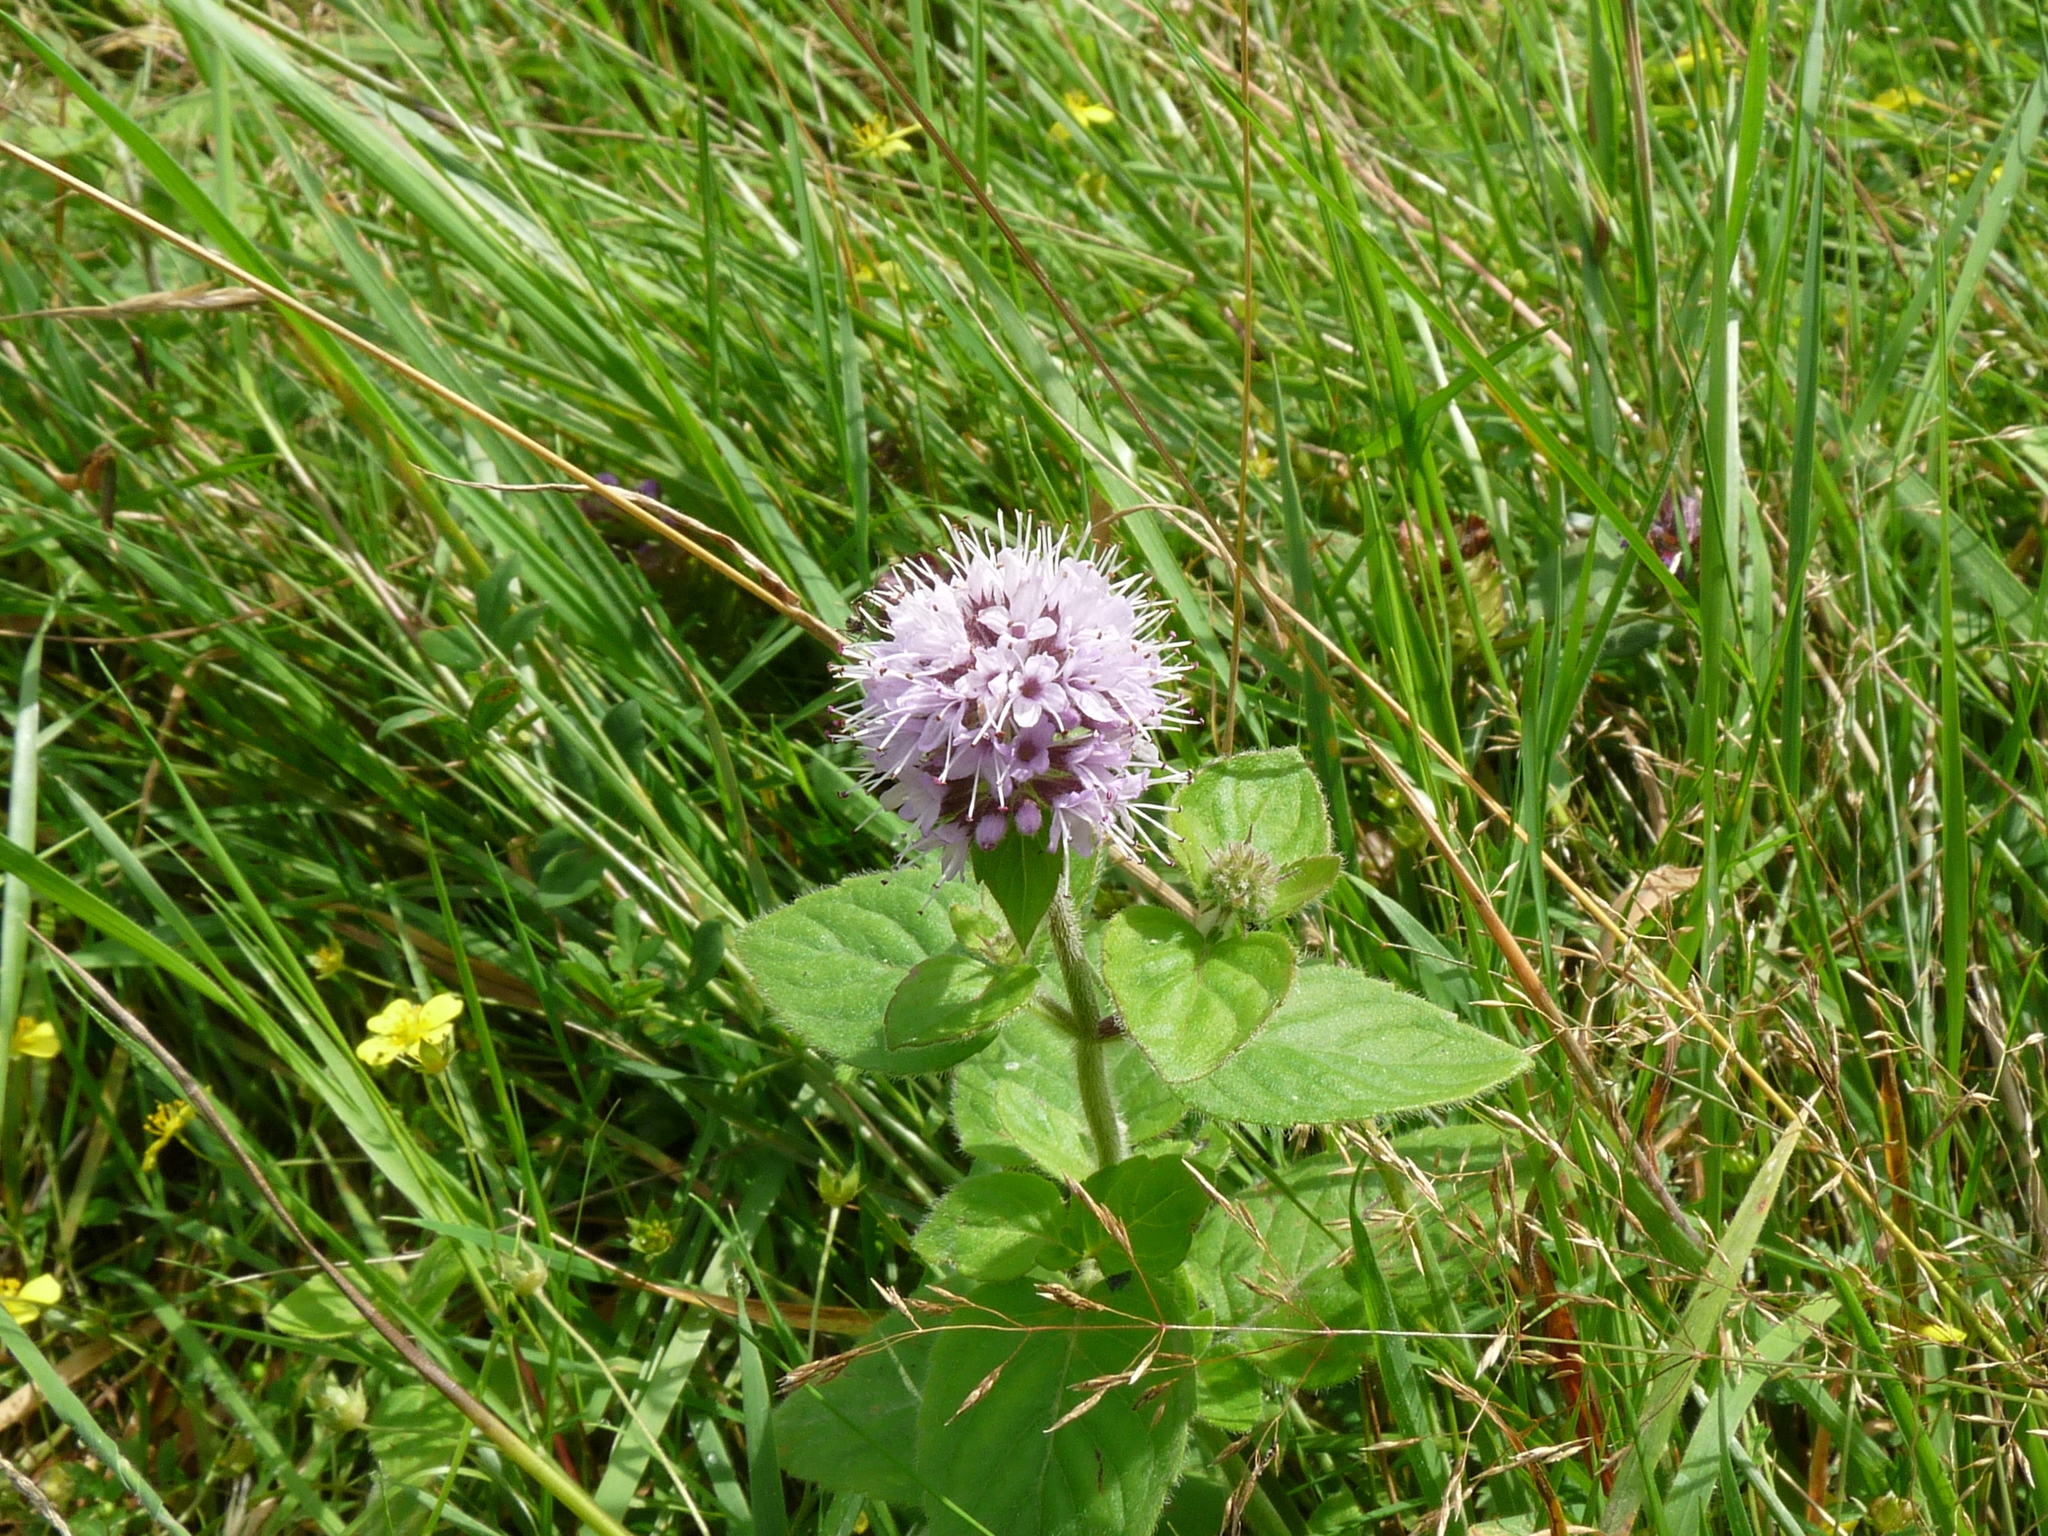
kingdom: Plantae
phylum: Tracheophyta
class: Magnoliopsida
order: Lamiales
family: Lamiaceae
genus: Mentha
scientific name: Mentha aquatica
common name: Water mint
